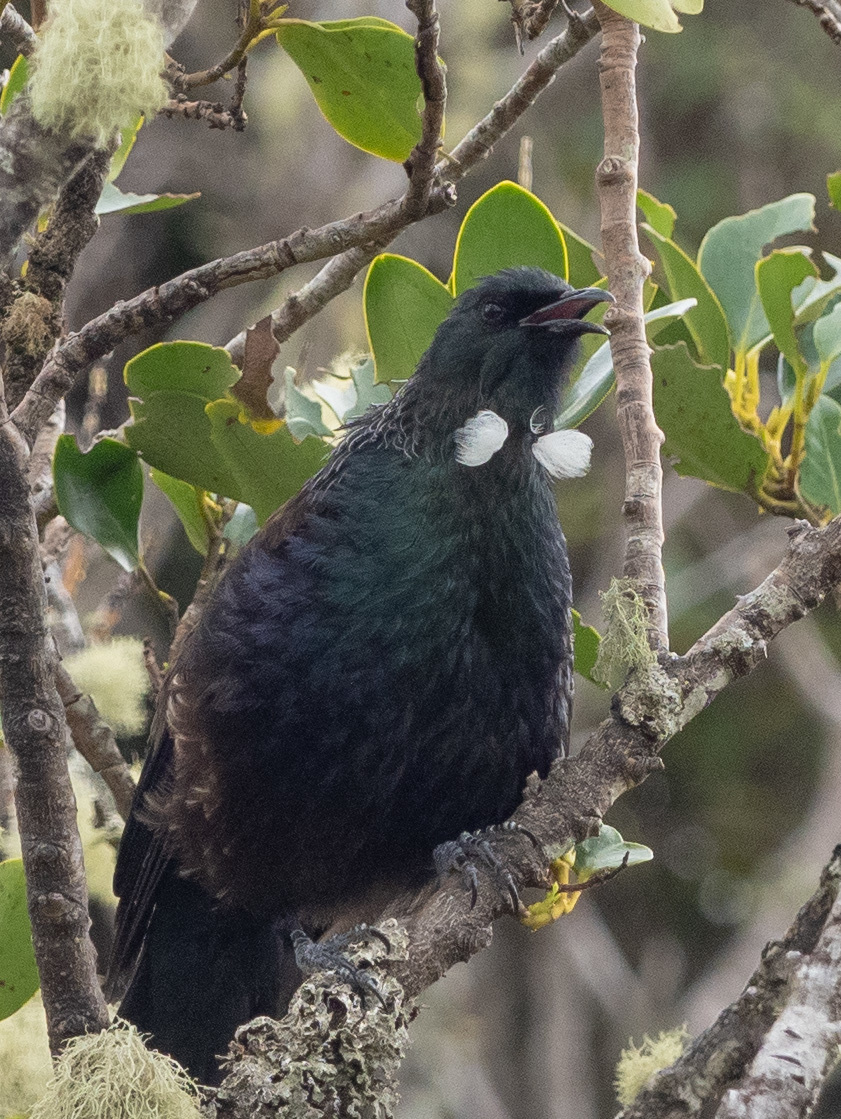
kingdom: Animalia
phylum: Chordata
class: Aves
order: Passeriformes
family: Meliphagidae
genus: Prosthemadera
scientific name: Prosthemadera novaeseelandiae
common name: Tui
